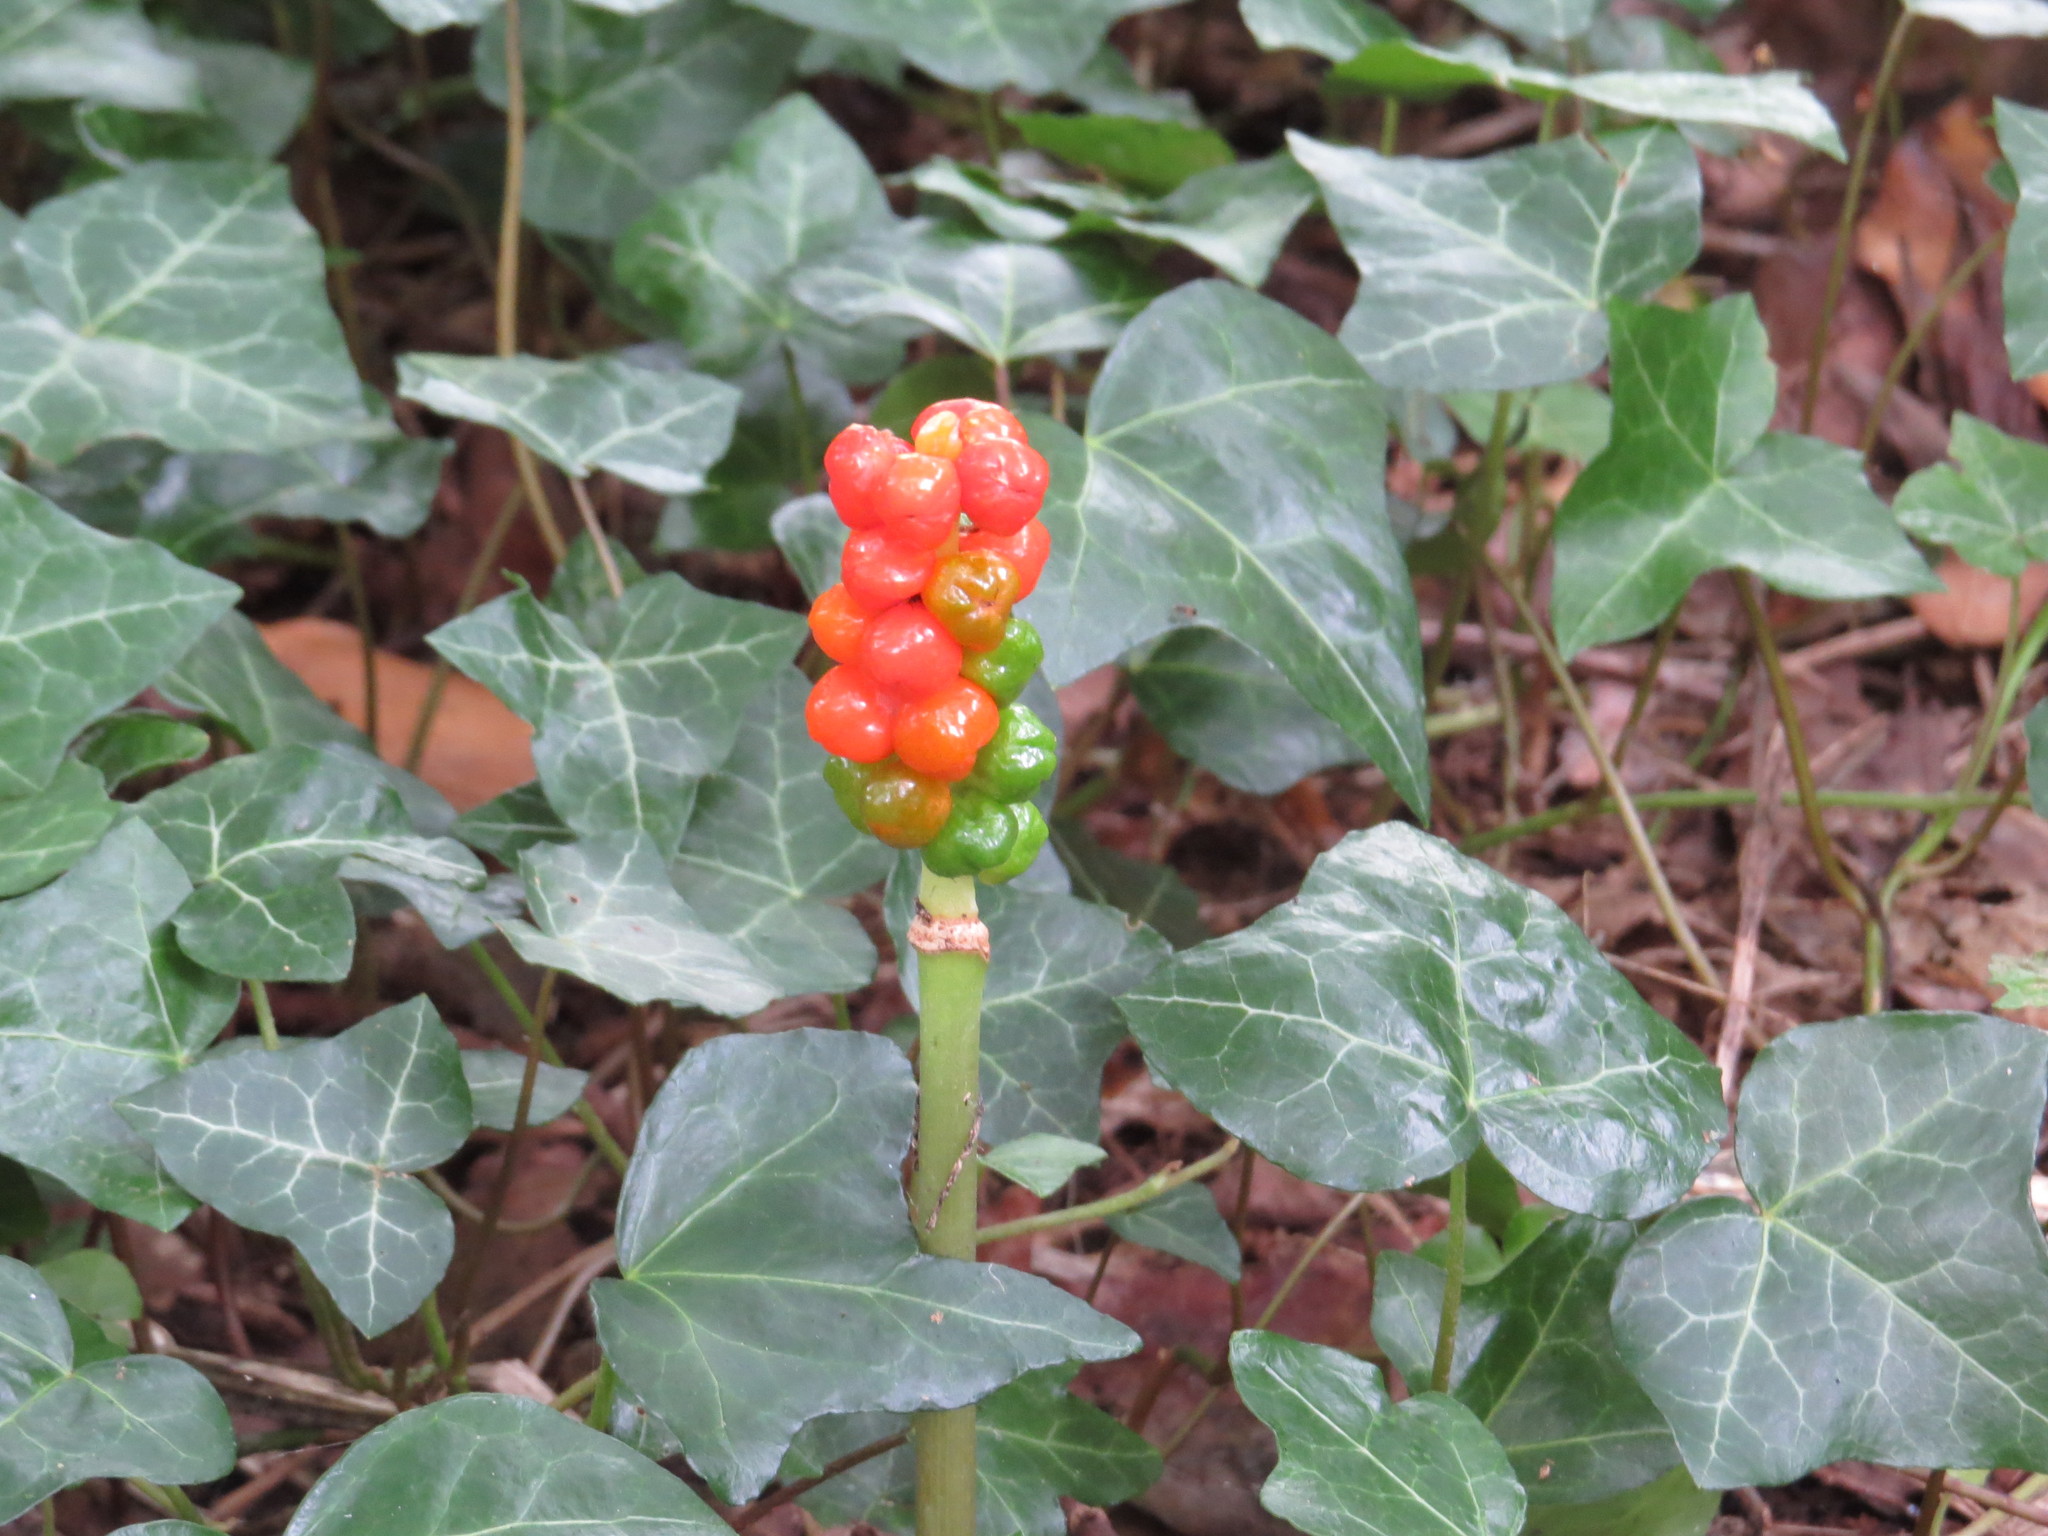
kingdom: Plantae
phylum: Tracheophyta
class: Liliopsida
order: Alismatales
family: Araceae
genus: Arum
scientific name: Arum maculatum
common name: Lords-and-ladies
